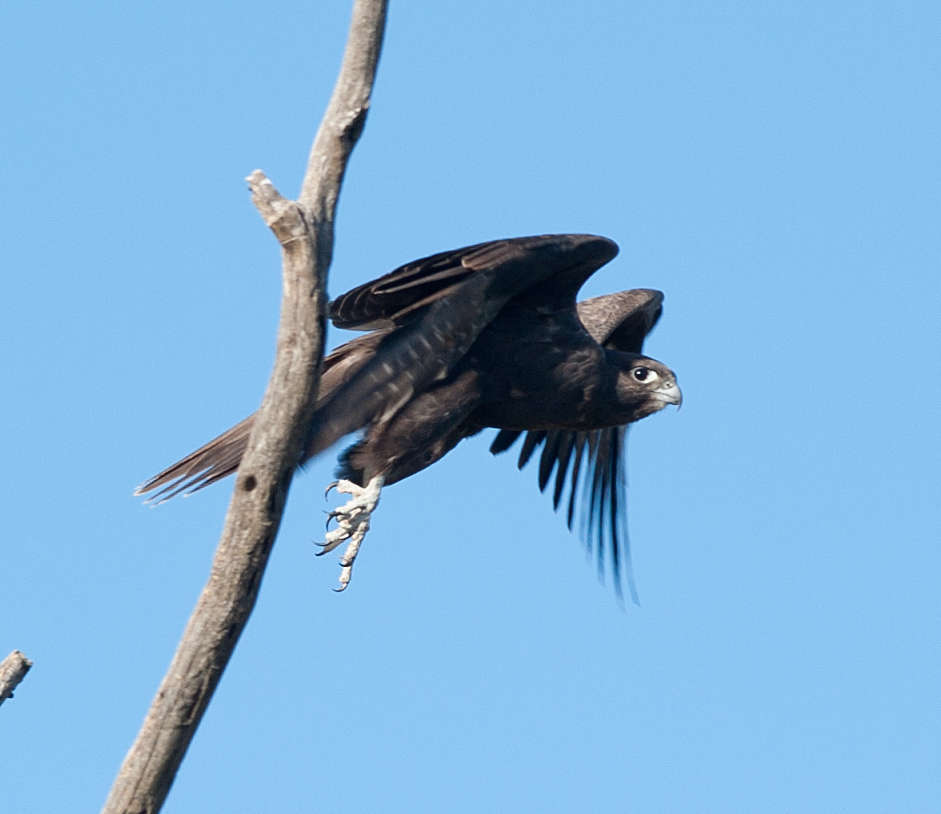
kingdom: Animalia
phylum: Chordata
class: Aves
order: Falconiformes
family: Falconidae
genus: Falco
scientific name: Falco subniger
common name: Black falcon
